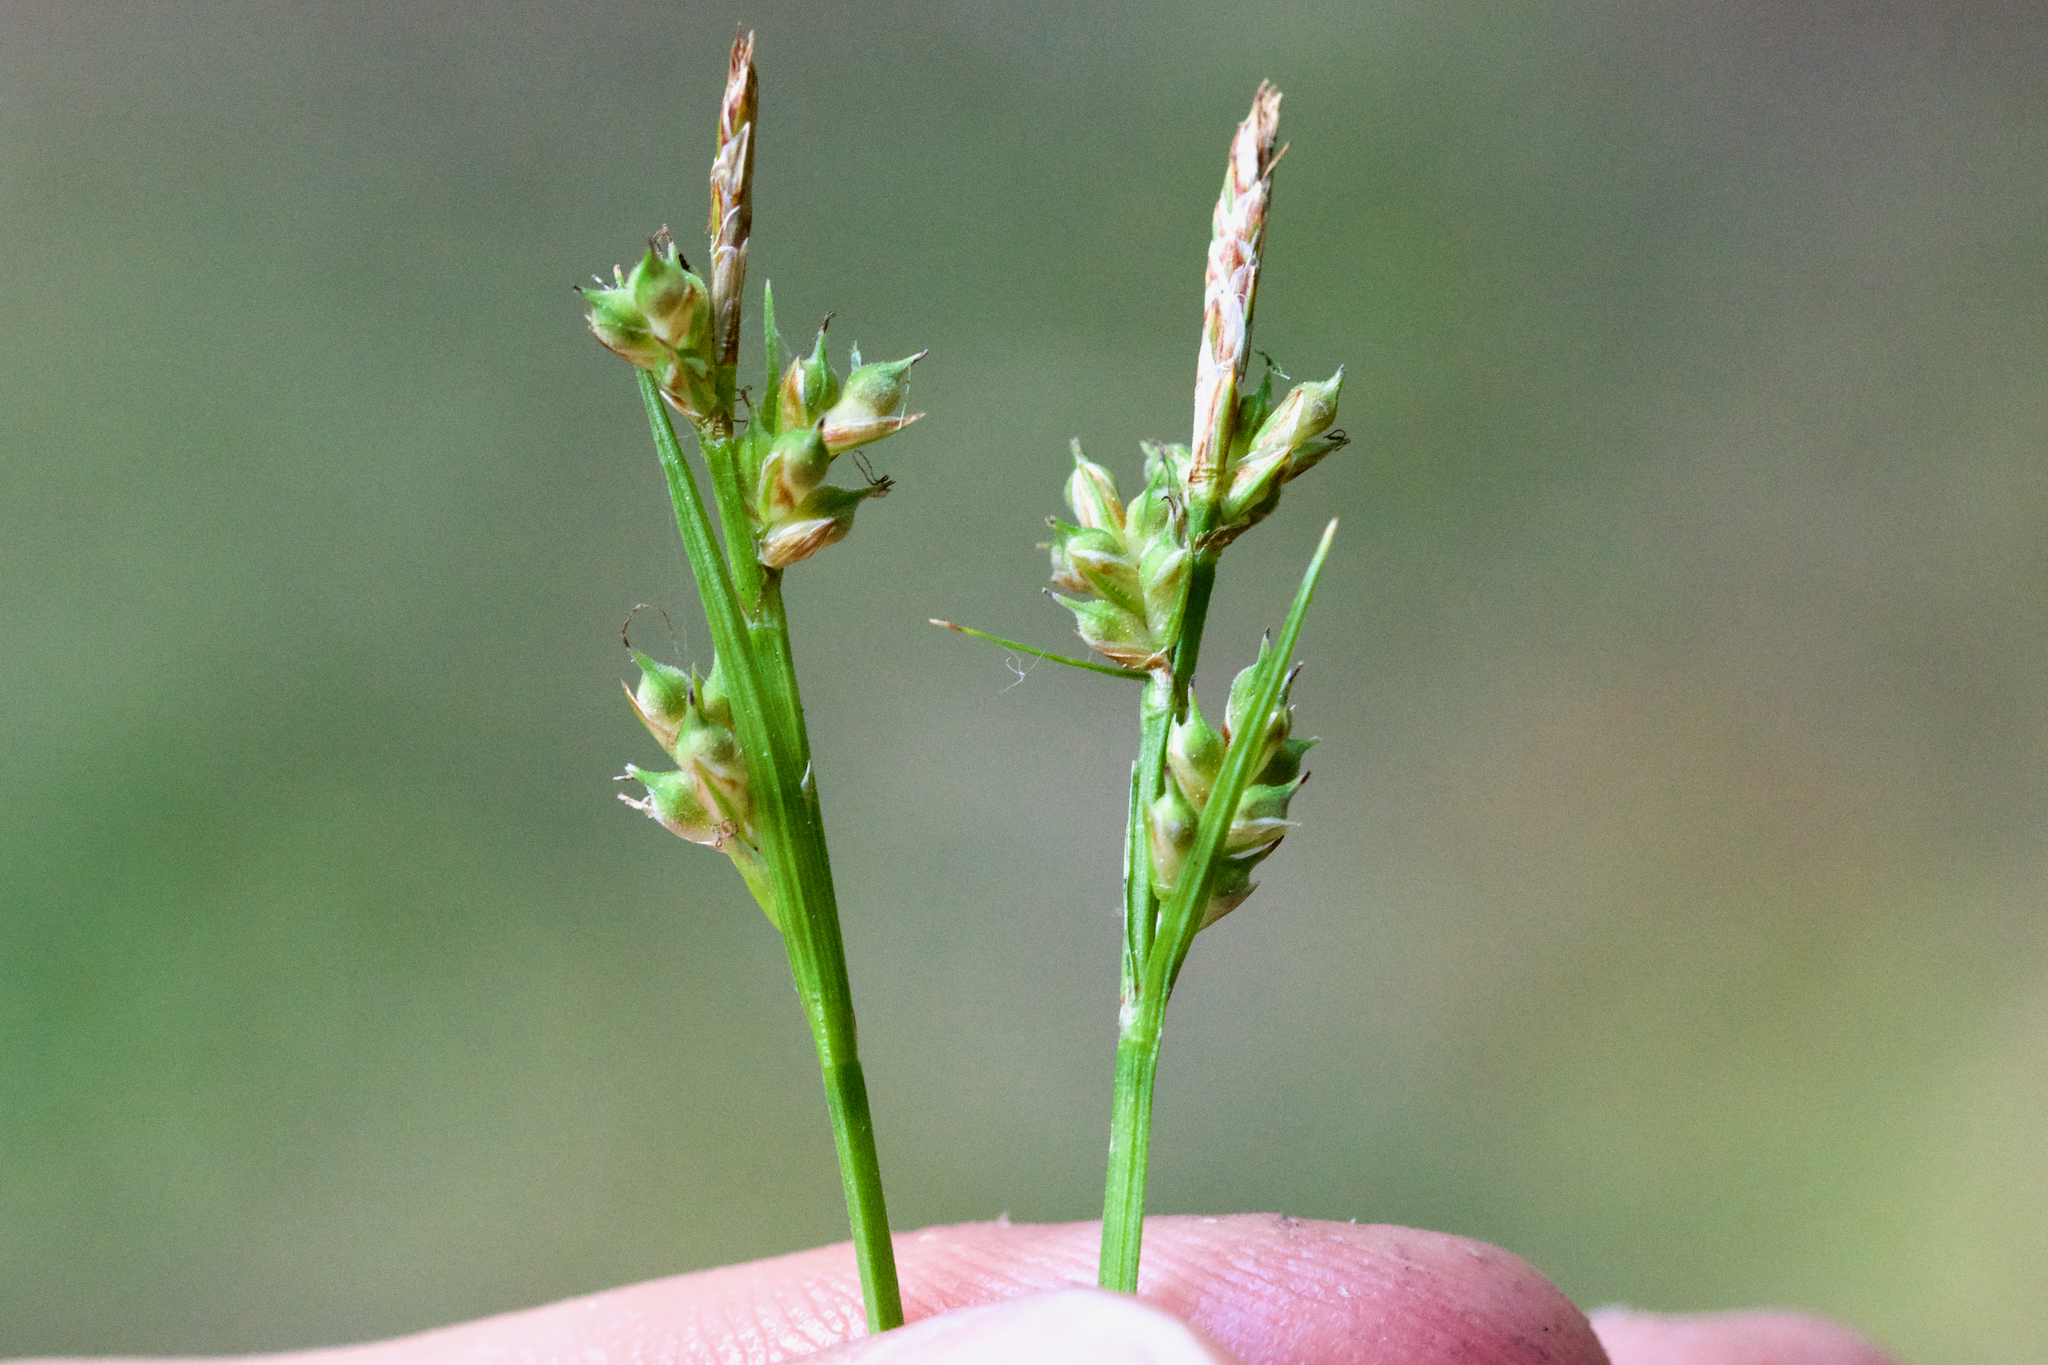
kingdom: Plantae
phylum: Tracheophyta
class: Liliopsida
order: Poales
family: Cyperaceae
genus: Carex
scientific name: Carex communis
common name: Colonial oak sedge
